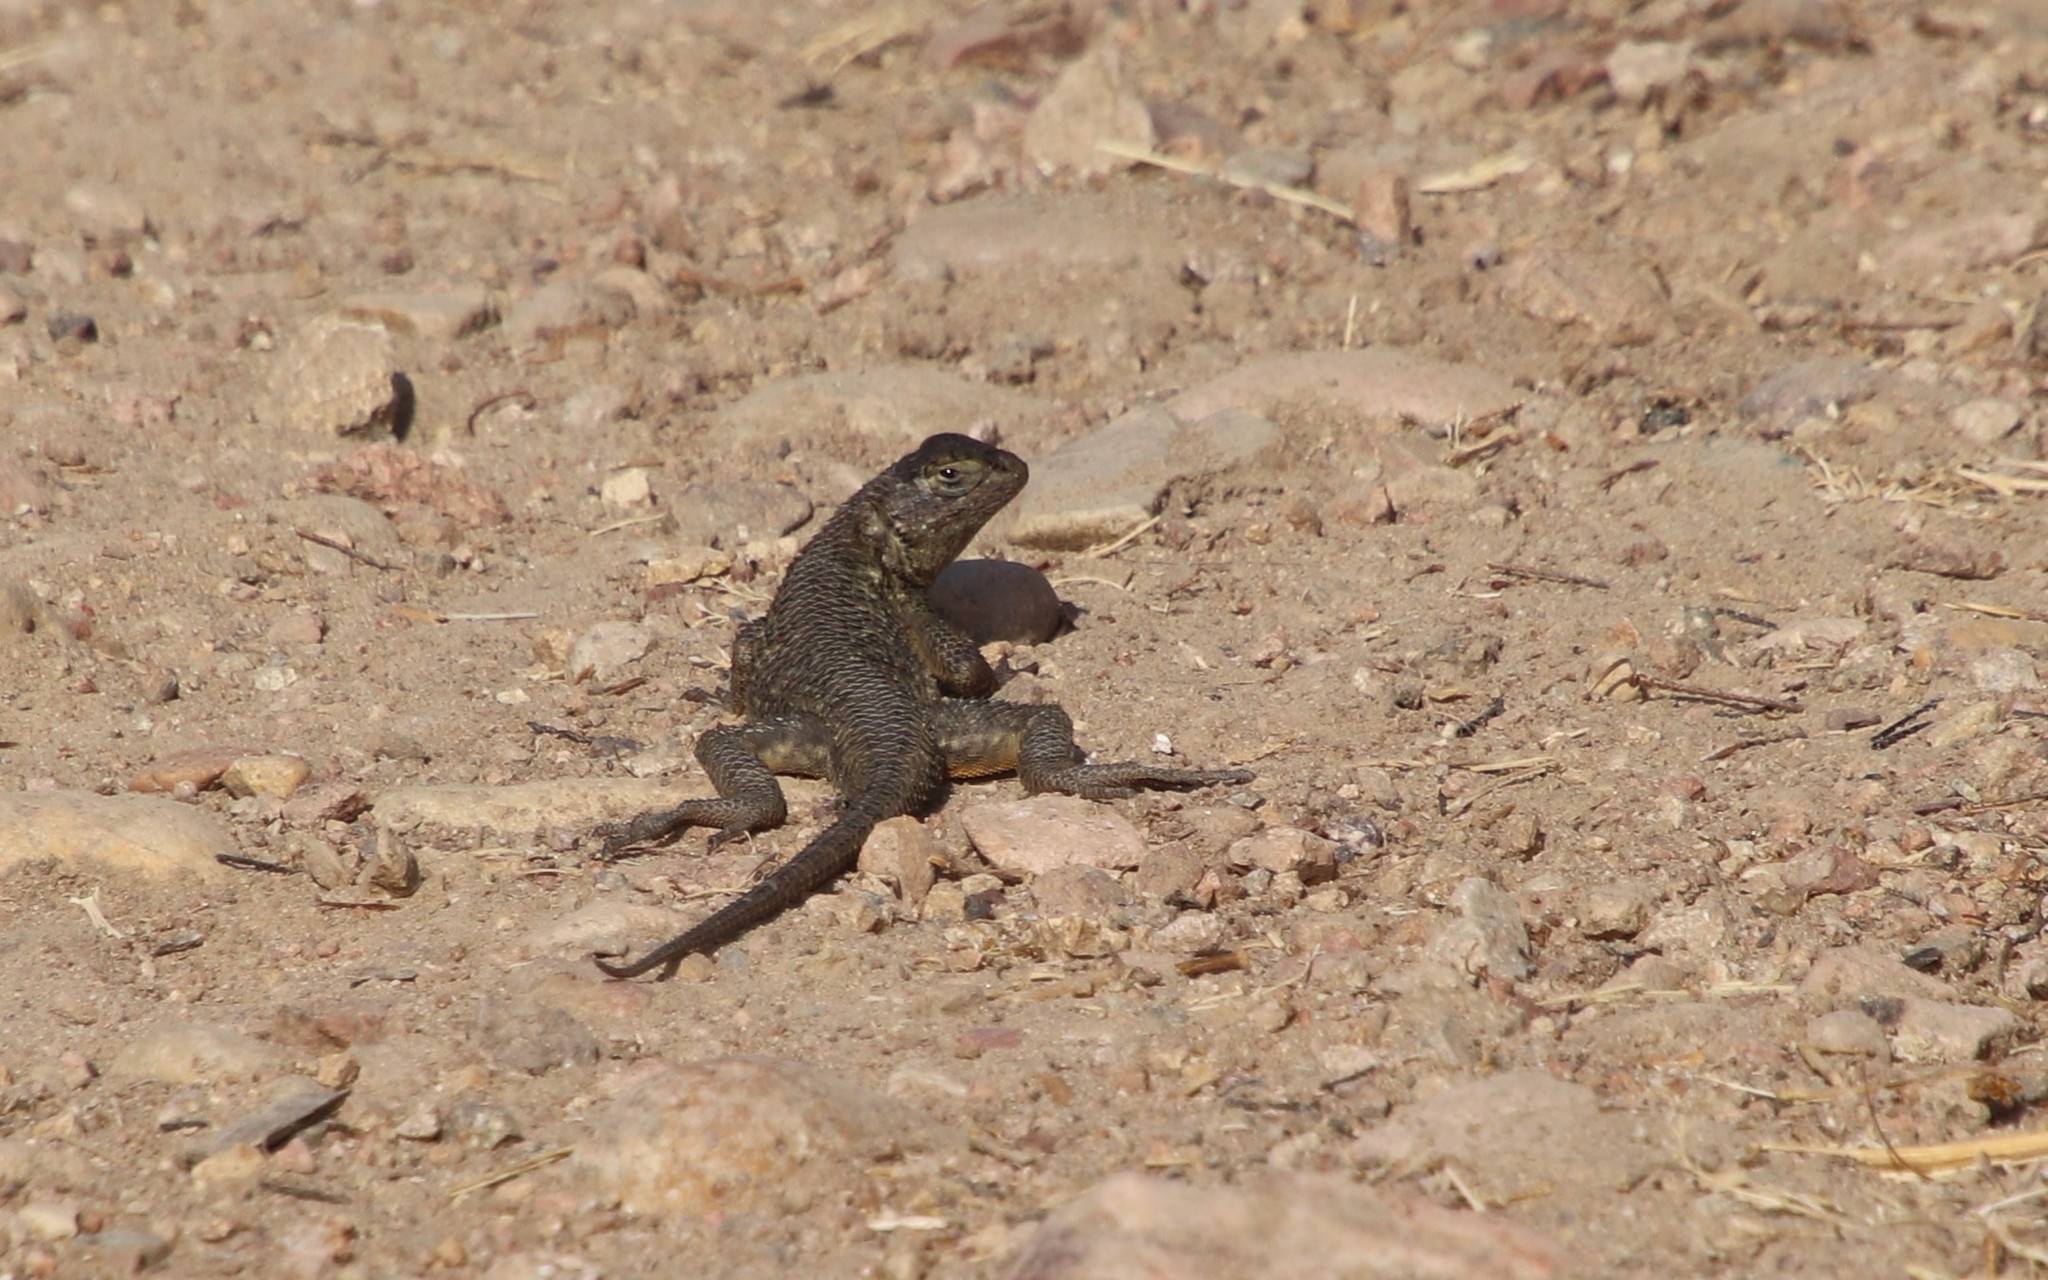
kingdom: Animalia
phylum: Chordata
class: Squamata
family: Phrynosomatidae
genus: Sceloporus
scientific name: Sceloporus occidentalis
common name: Western fence lizard
